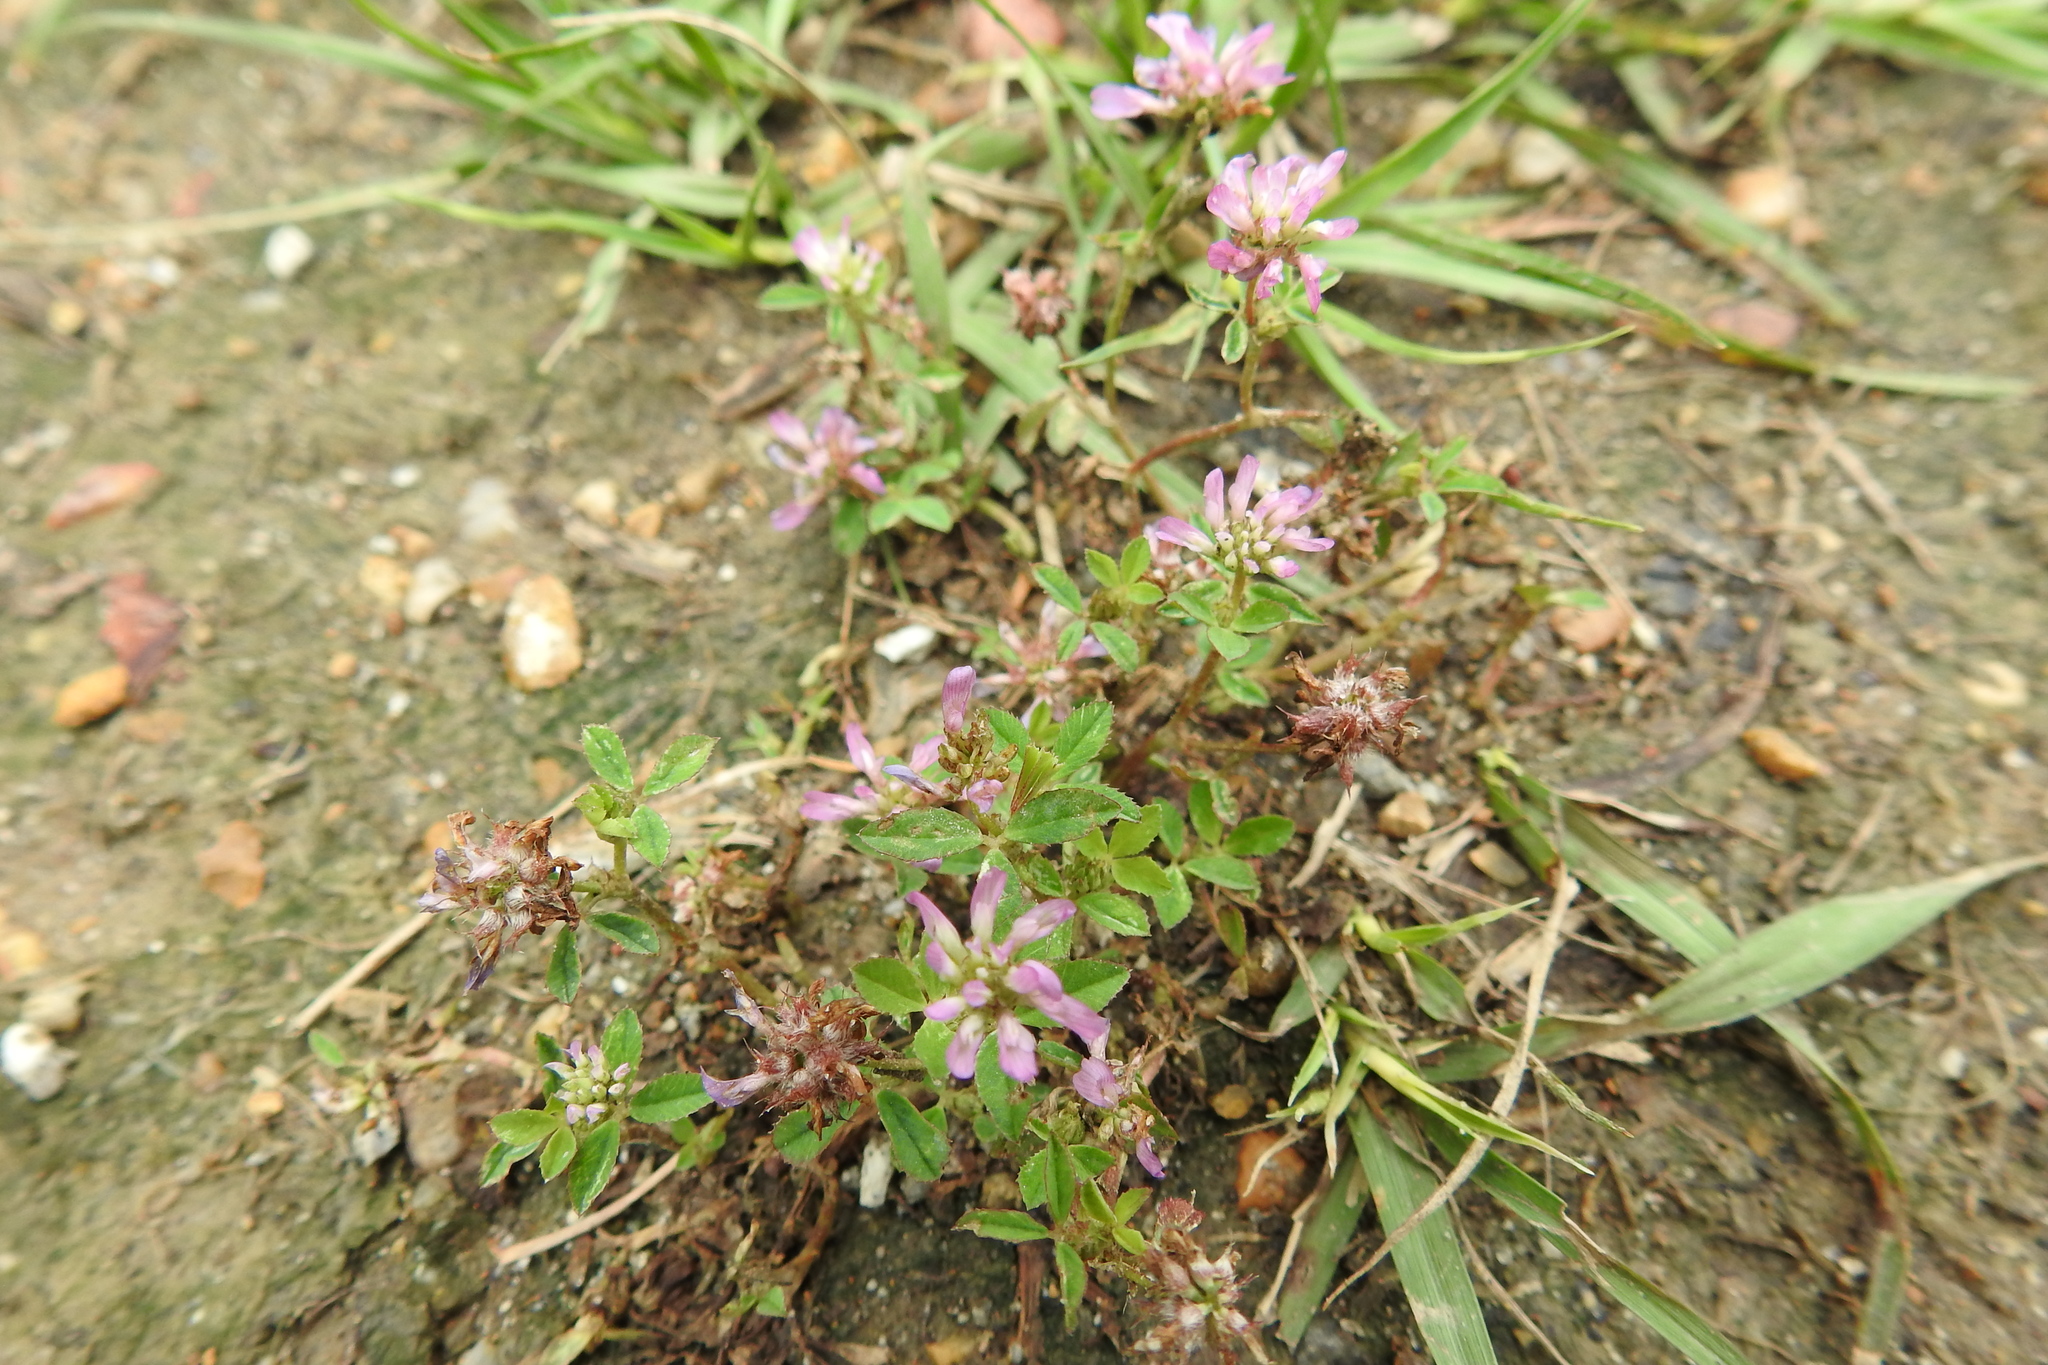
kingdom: Plantae
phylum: Tracheophyta
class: Magnoliopsida
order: Fabales
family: Fabaceae
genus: Trifolium
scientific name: Trifolium resupinatum
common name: Reversed clover
